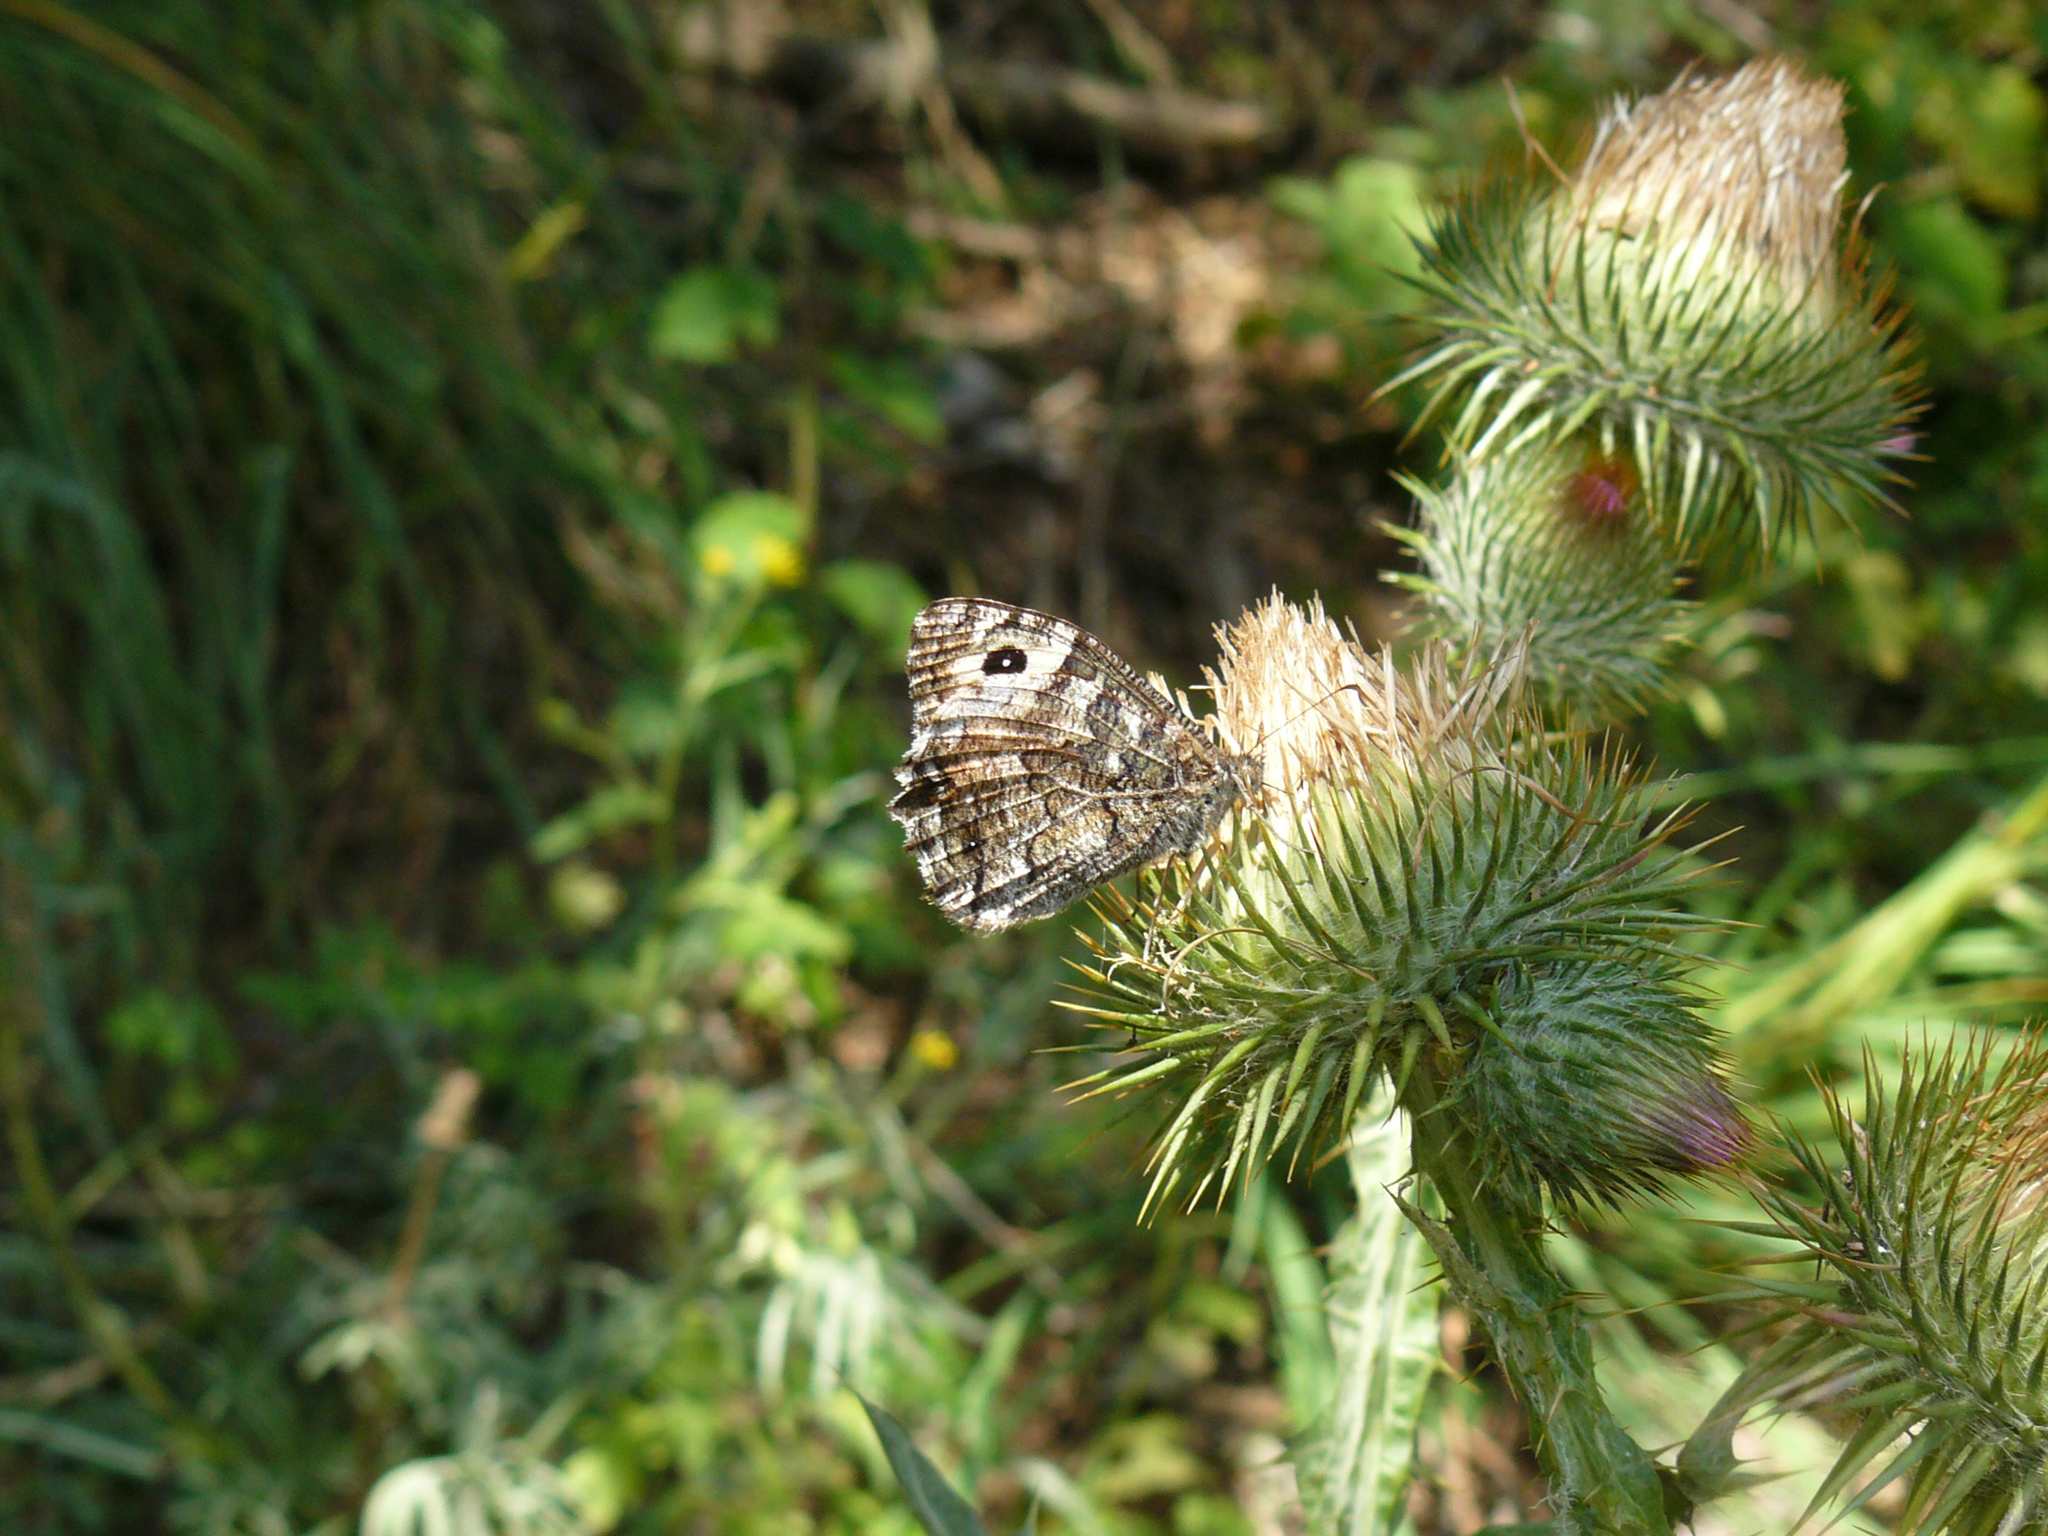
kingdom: Animalia
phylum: Arthropoda
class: Insecta
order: Lepidoptera
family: Nymphalidae
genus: Hipparchia
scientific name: Hipparchia semele
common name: Grayling
